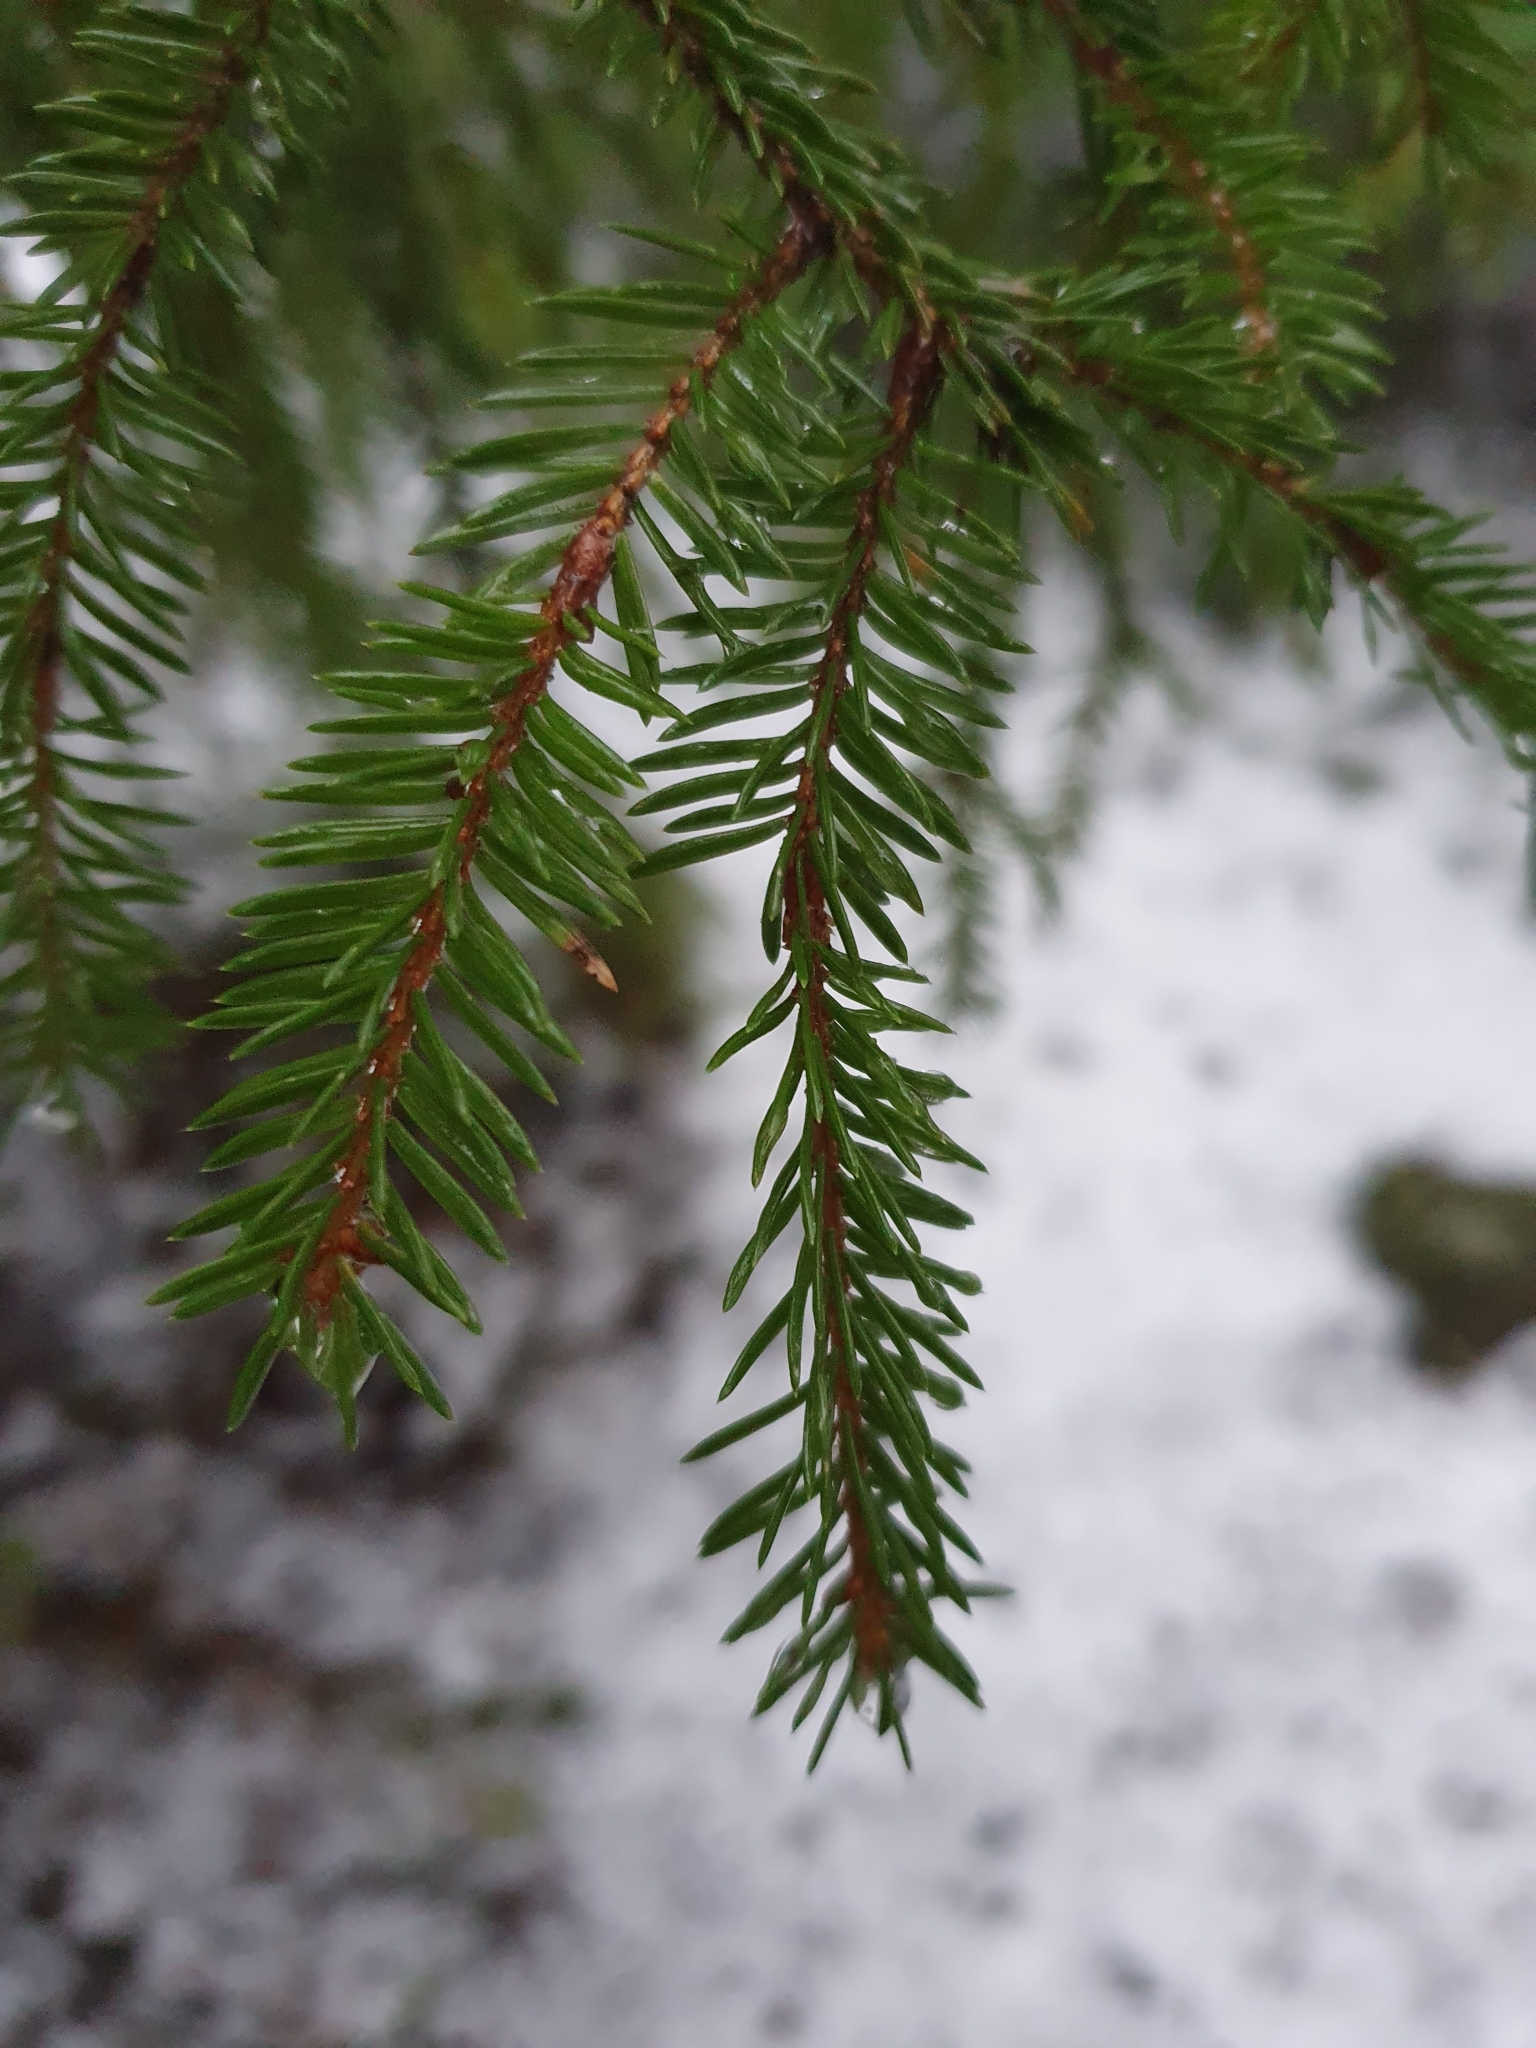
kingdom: Plantae
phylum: Tracheophyta
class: Pinopsida
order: Pinales
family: Pinaceae
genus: Picea
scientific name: Picea abies
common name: Norway spruce
